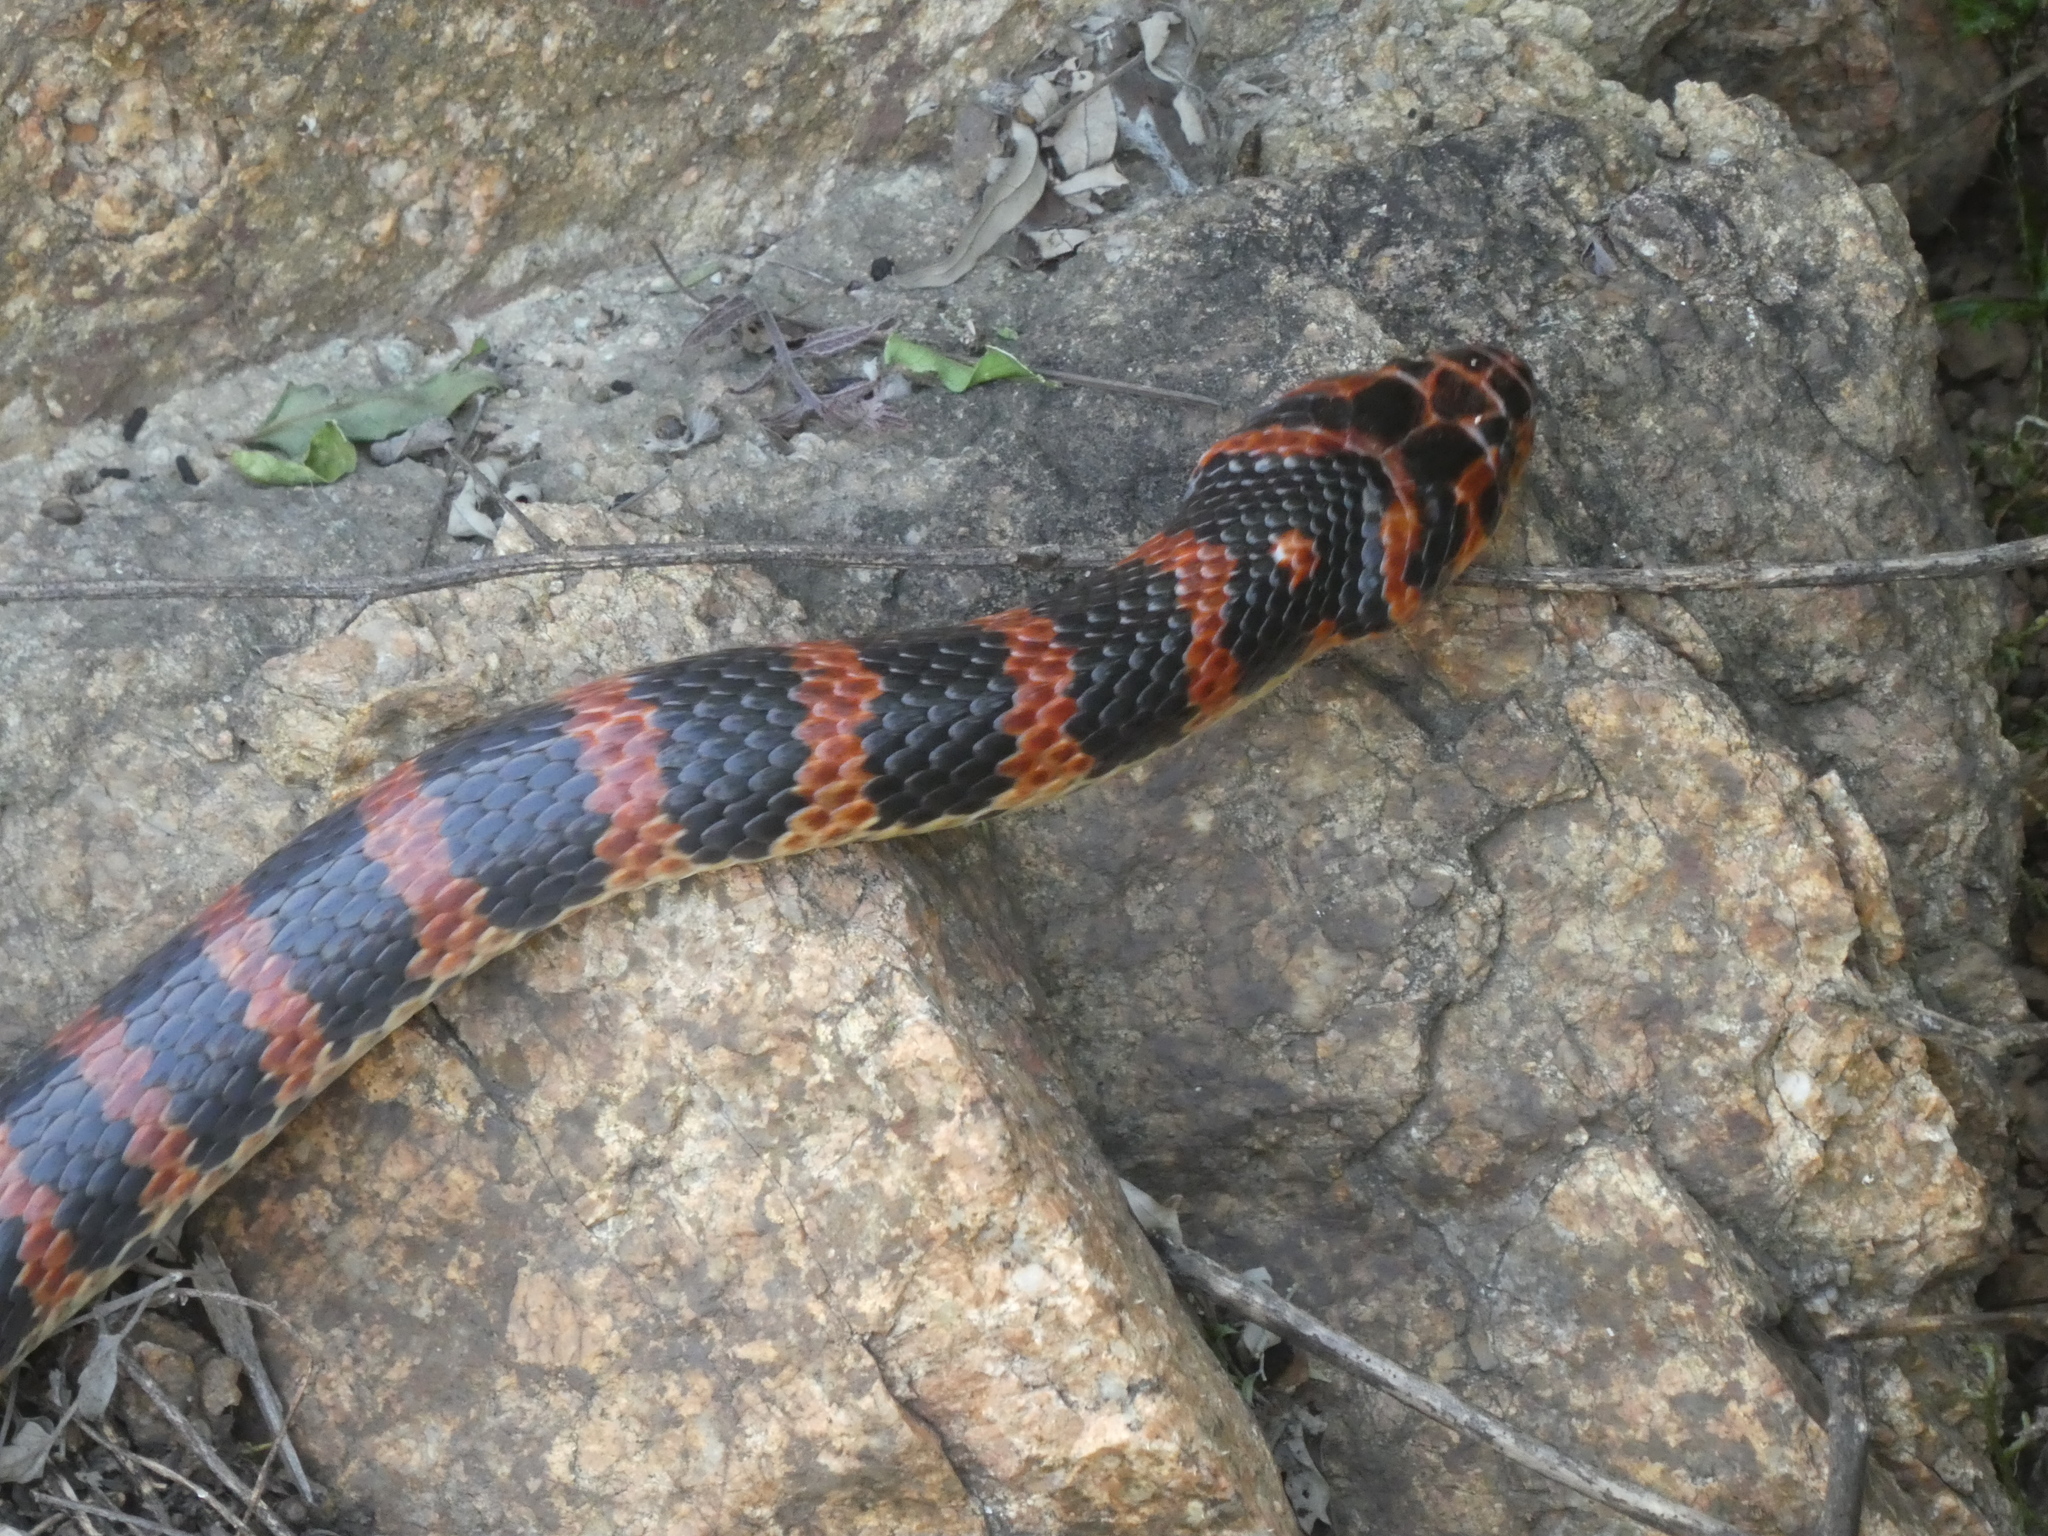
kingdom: Animalia
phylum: Chordata
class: Squamata
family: Colubridae
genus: Lycodon
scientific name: Lycodon rufozonatus
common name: Red-banded snake
